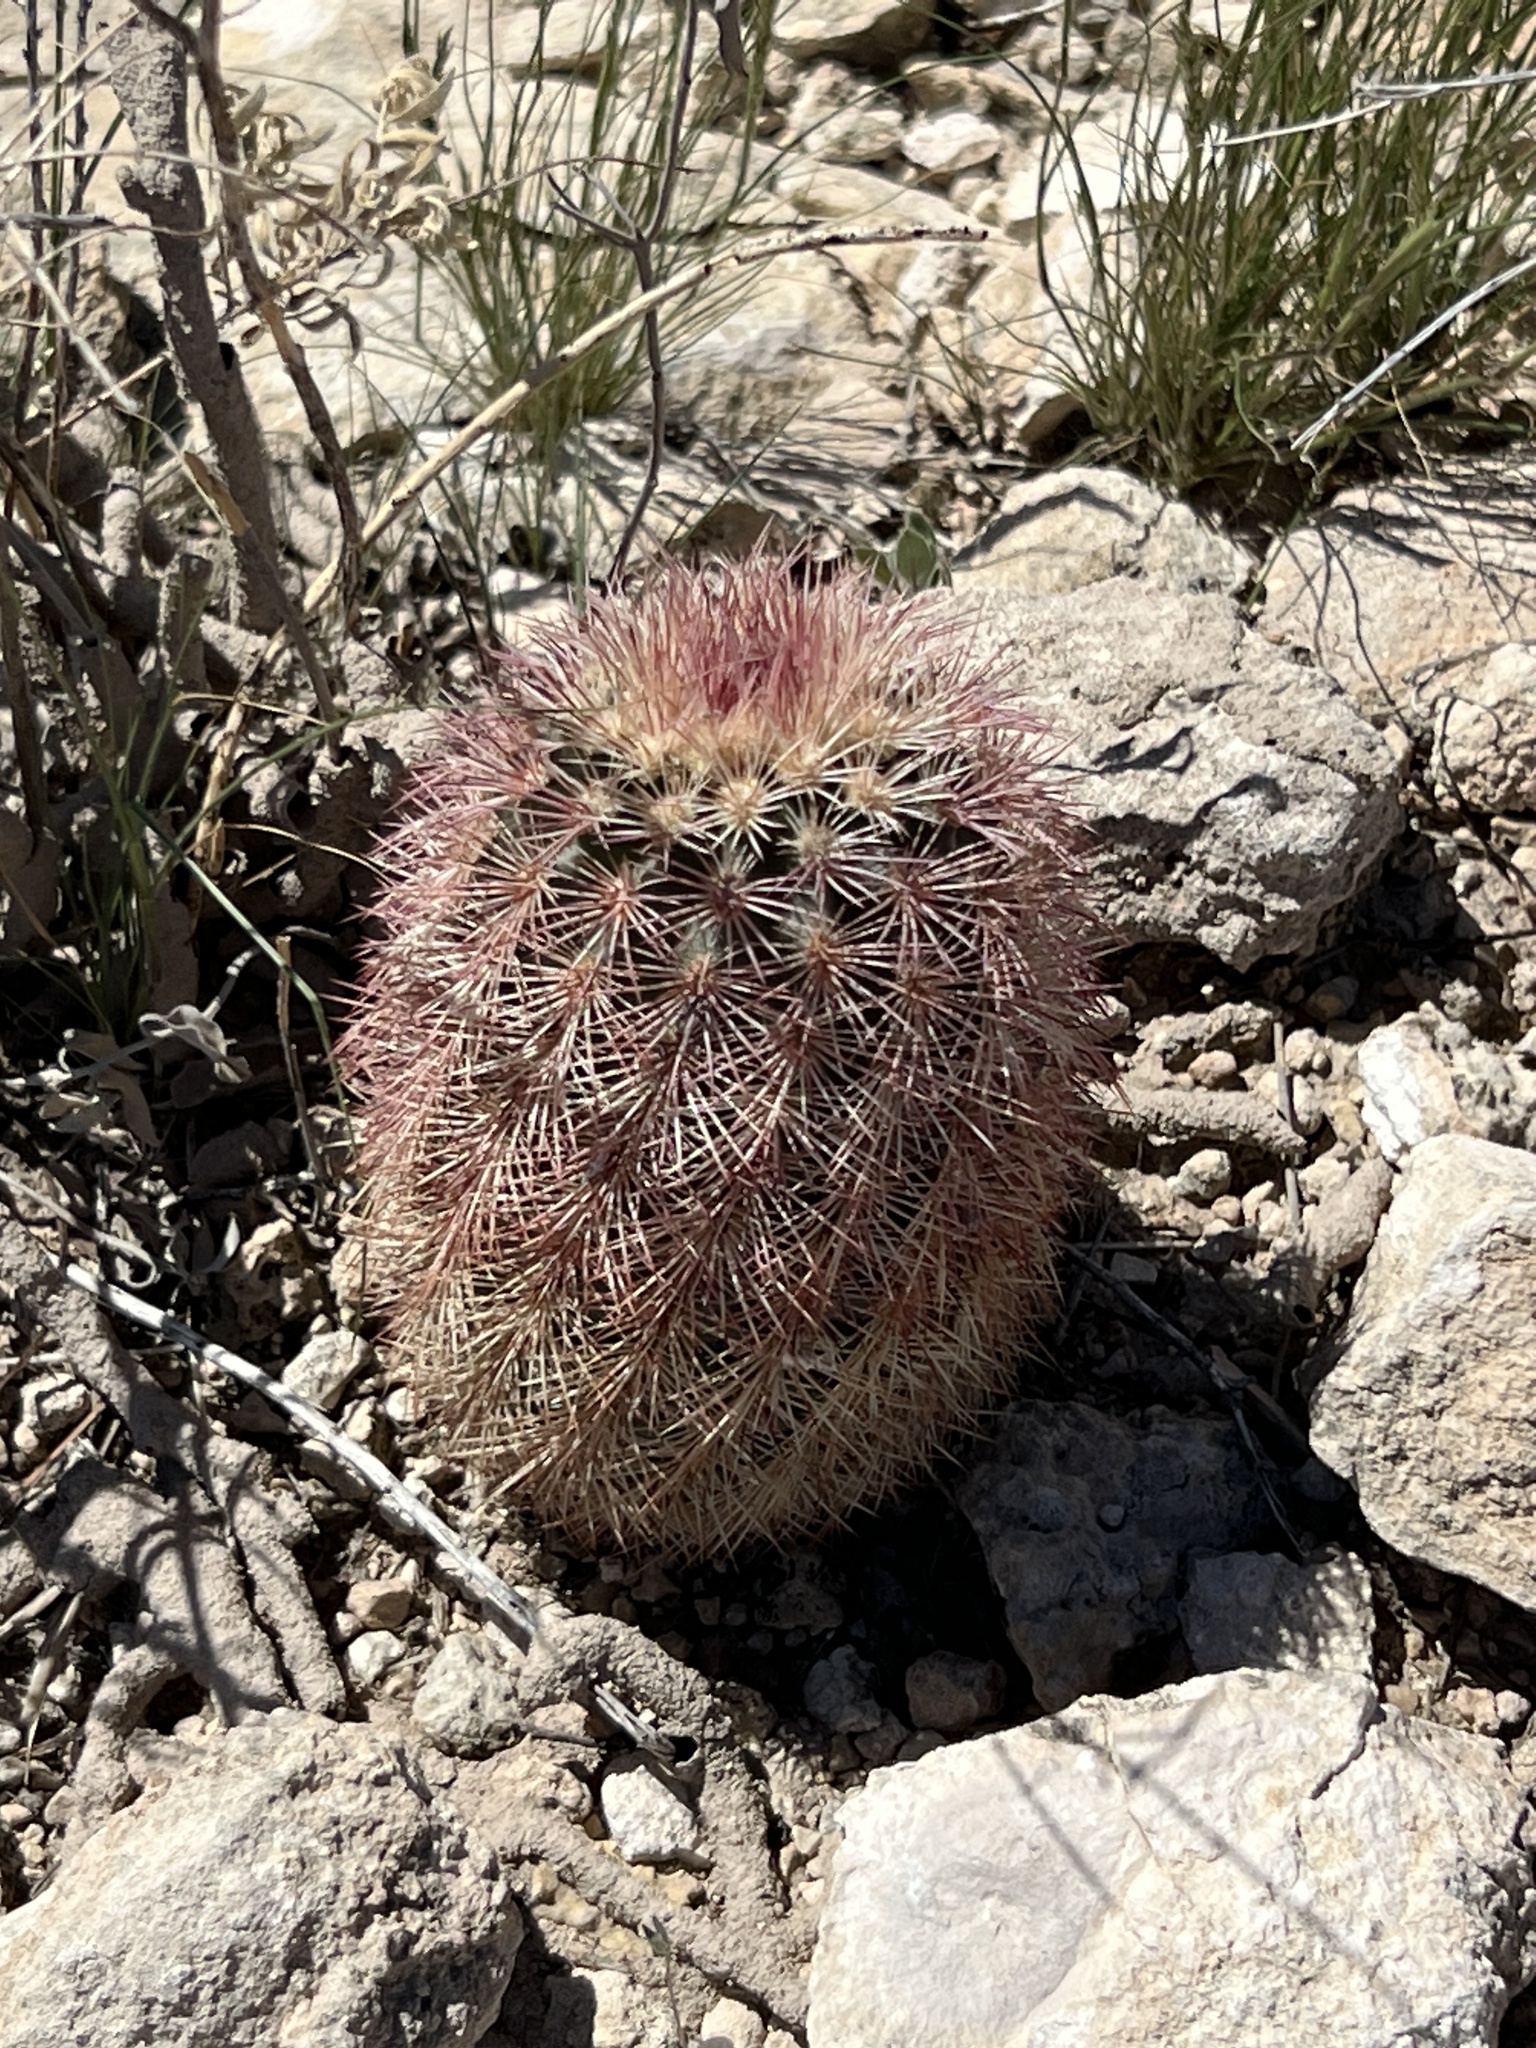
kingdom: Plantae
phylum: Tracheophyta
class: Magnoliopsida
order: Caryophyllales
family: Cactaceae
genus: Echinocereus
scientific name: Echinocereus dasyacanthus
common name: Spiny hedgehog cactus
